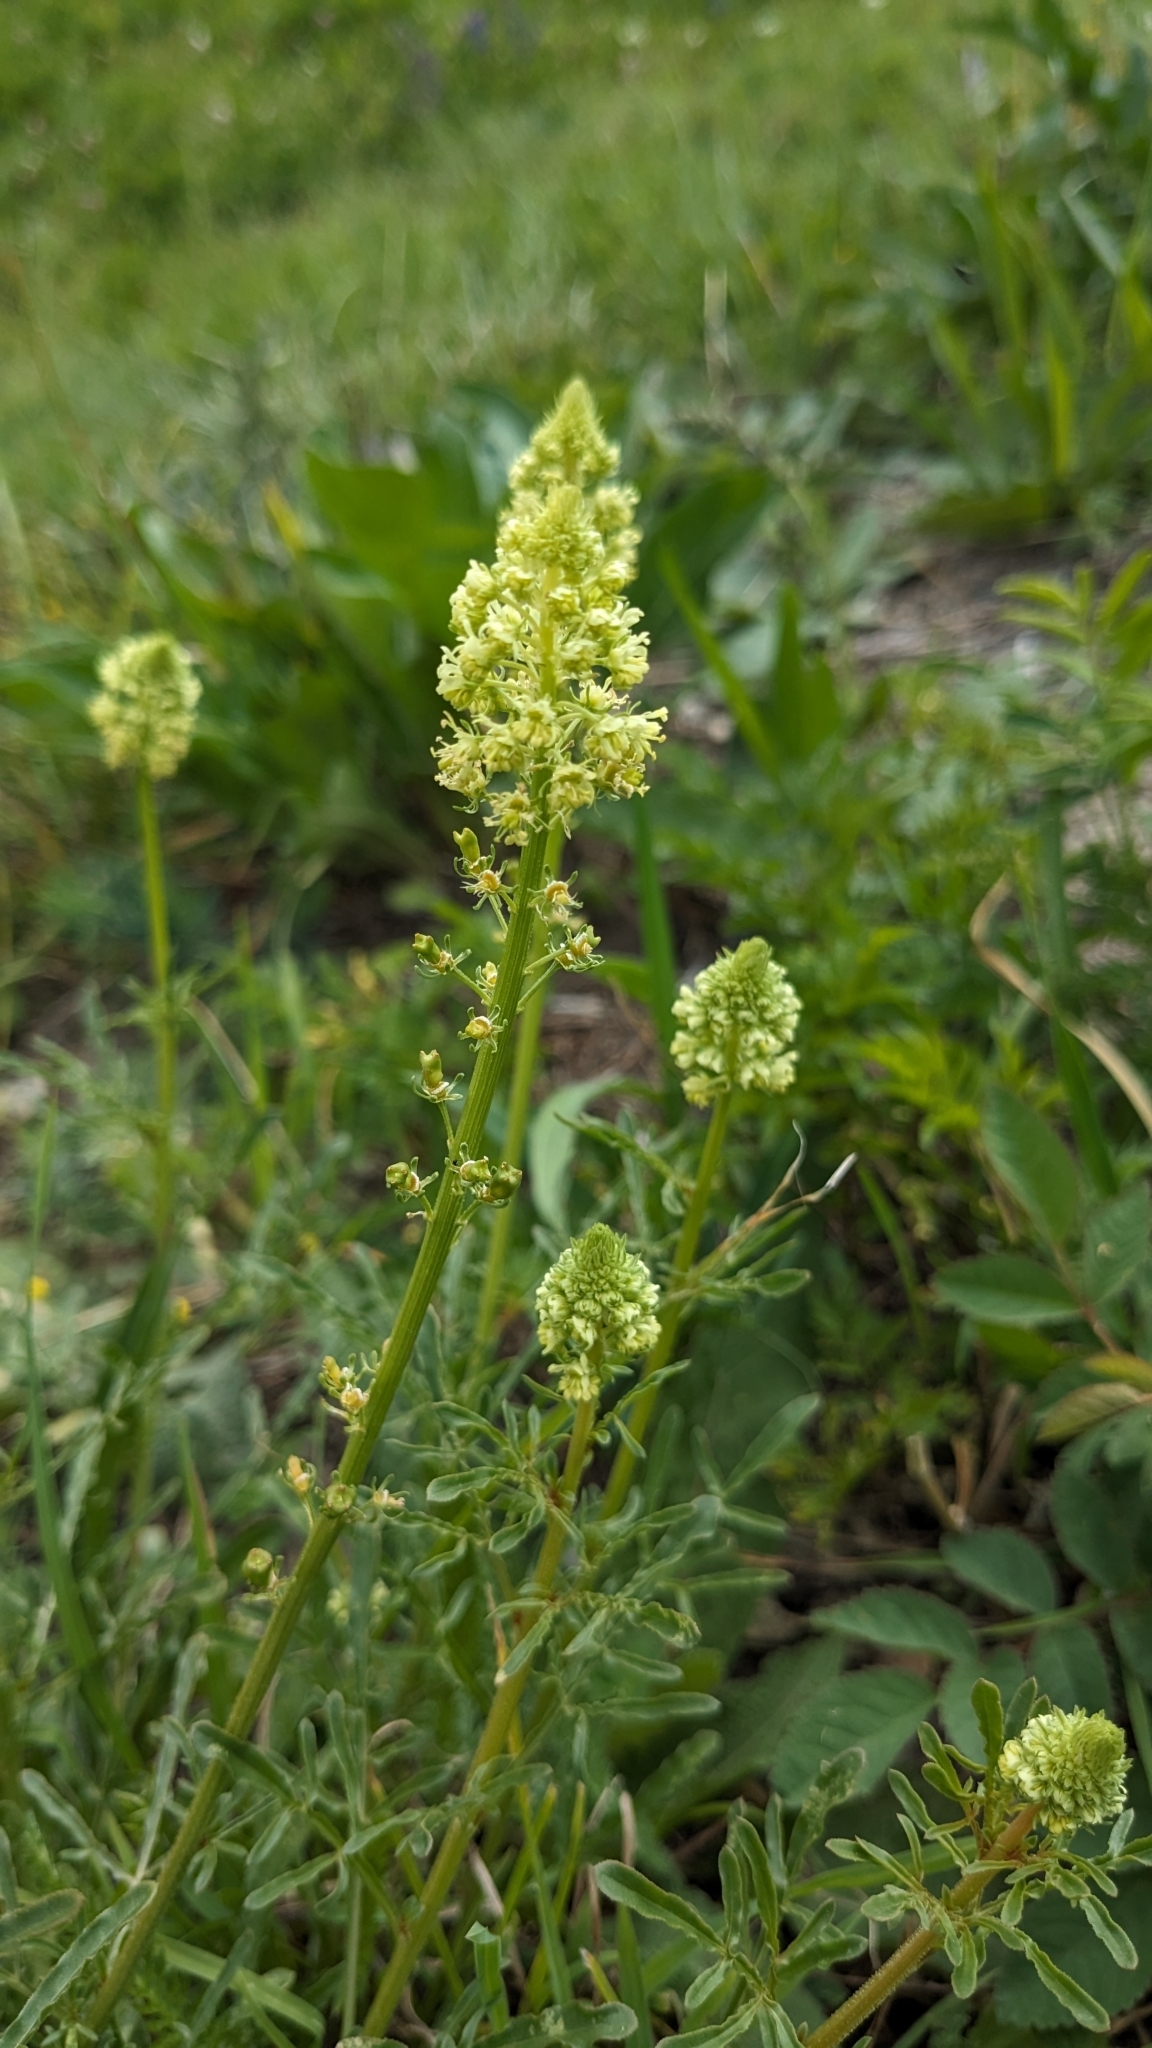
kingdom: Plantae
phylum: Tracheophyta
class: Magnoliopsida
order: Brassicales
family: Resedaceae
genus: Reseda
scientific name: Reseda lutea
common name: Wild mignonette
